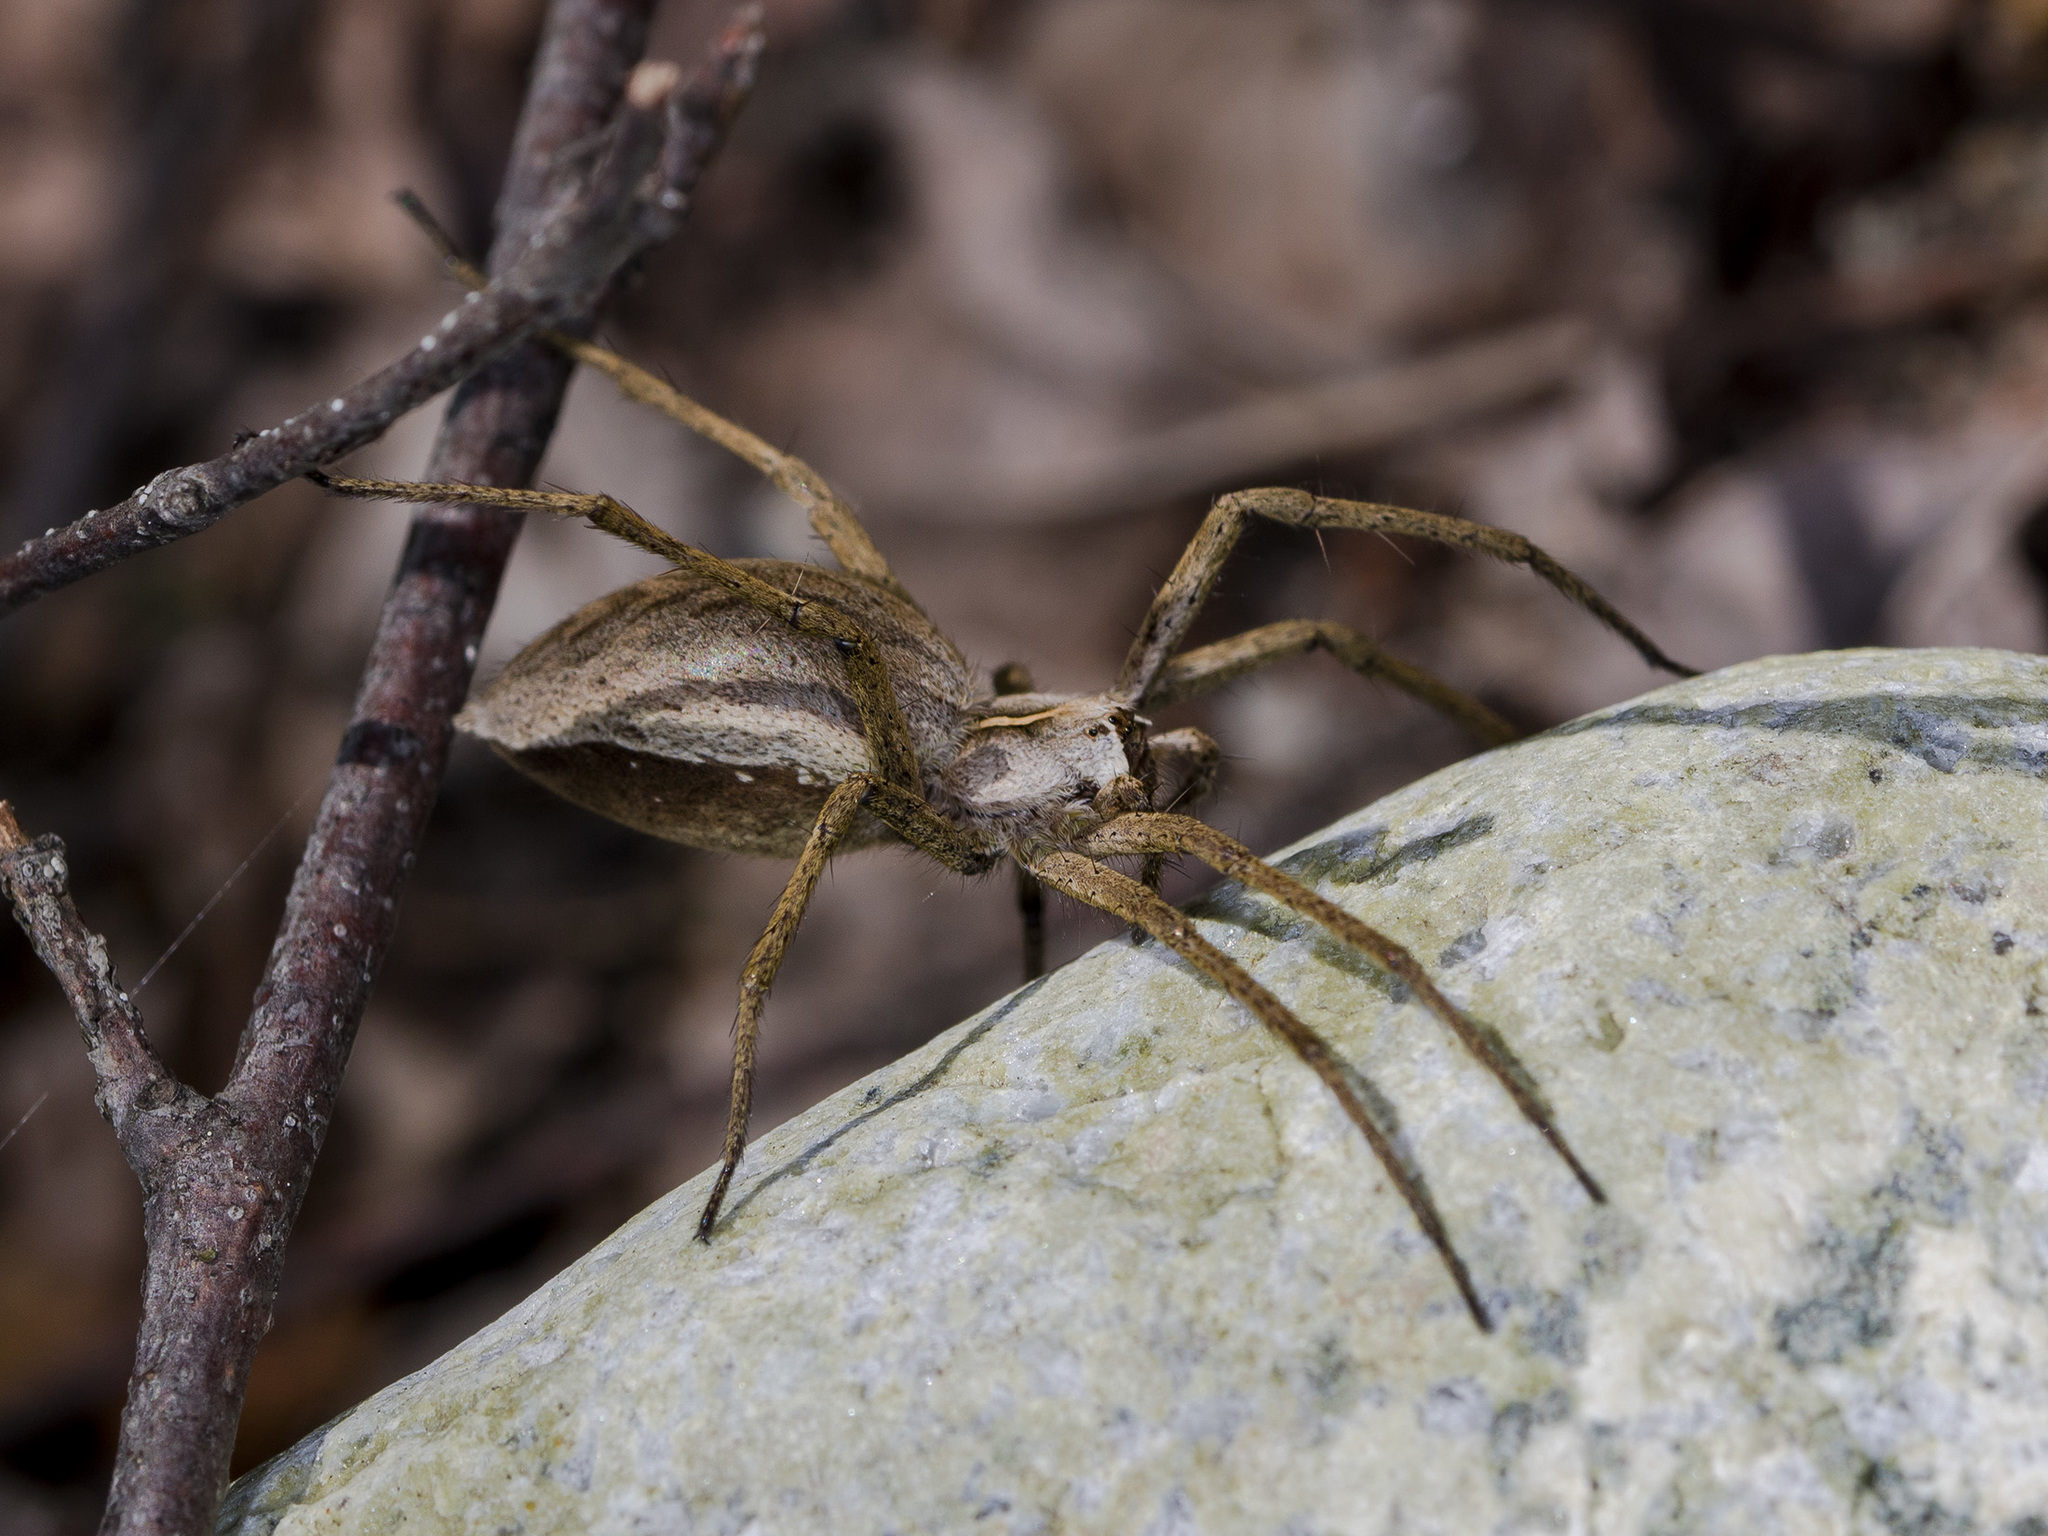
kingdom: Animalia
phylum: Arthropoda
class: Arachnida
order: Araneae
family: Pisauridae
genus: Pisaura
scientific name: Pisaura mirabilis
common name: Tent spider
